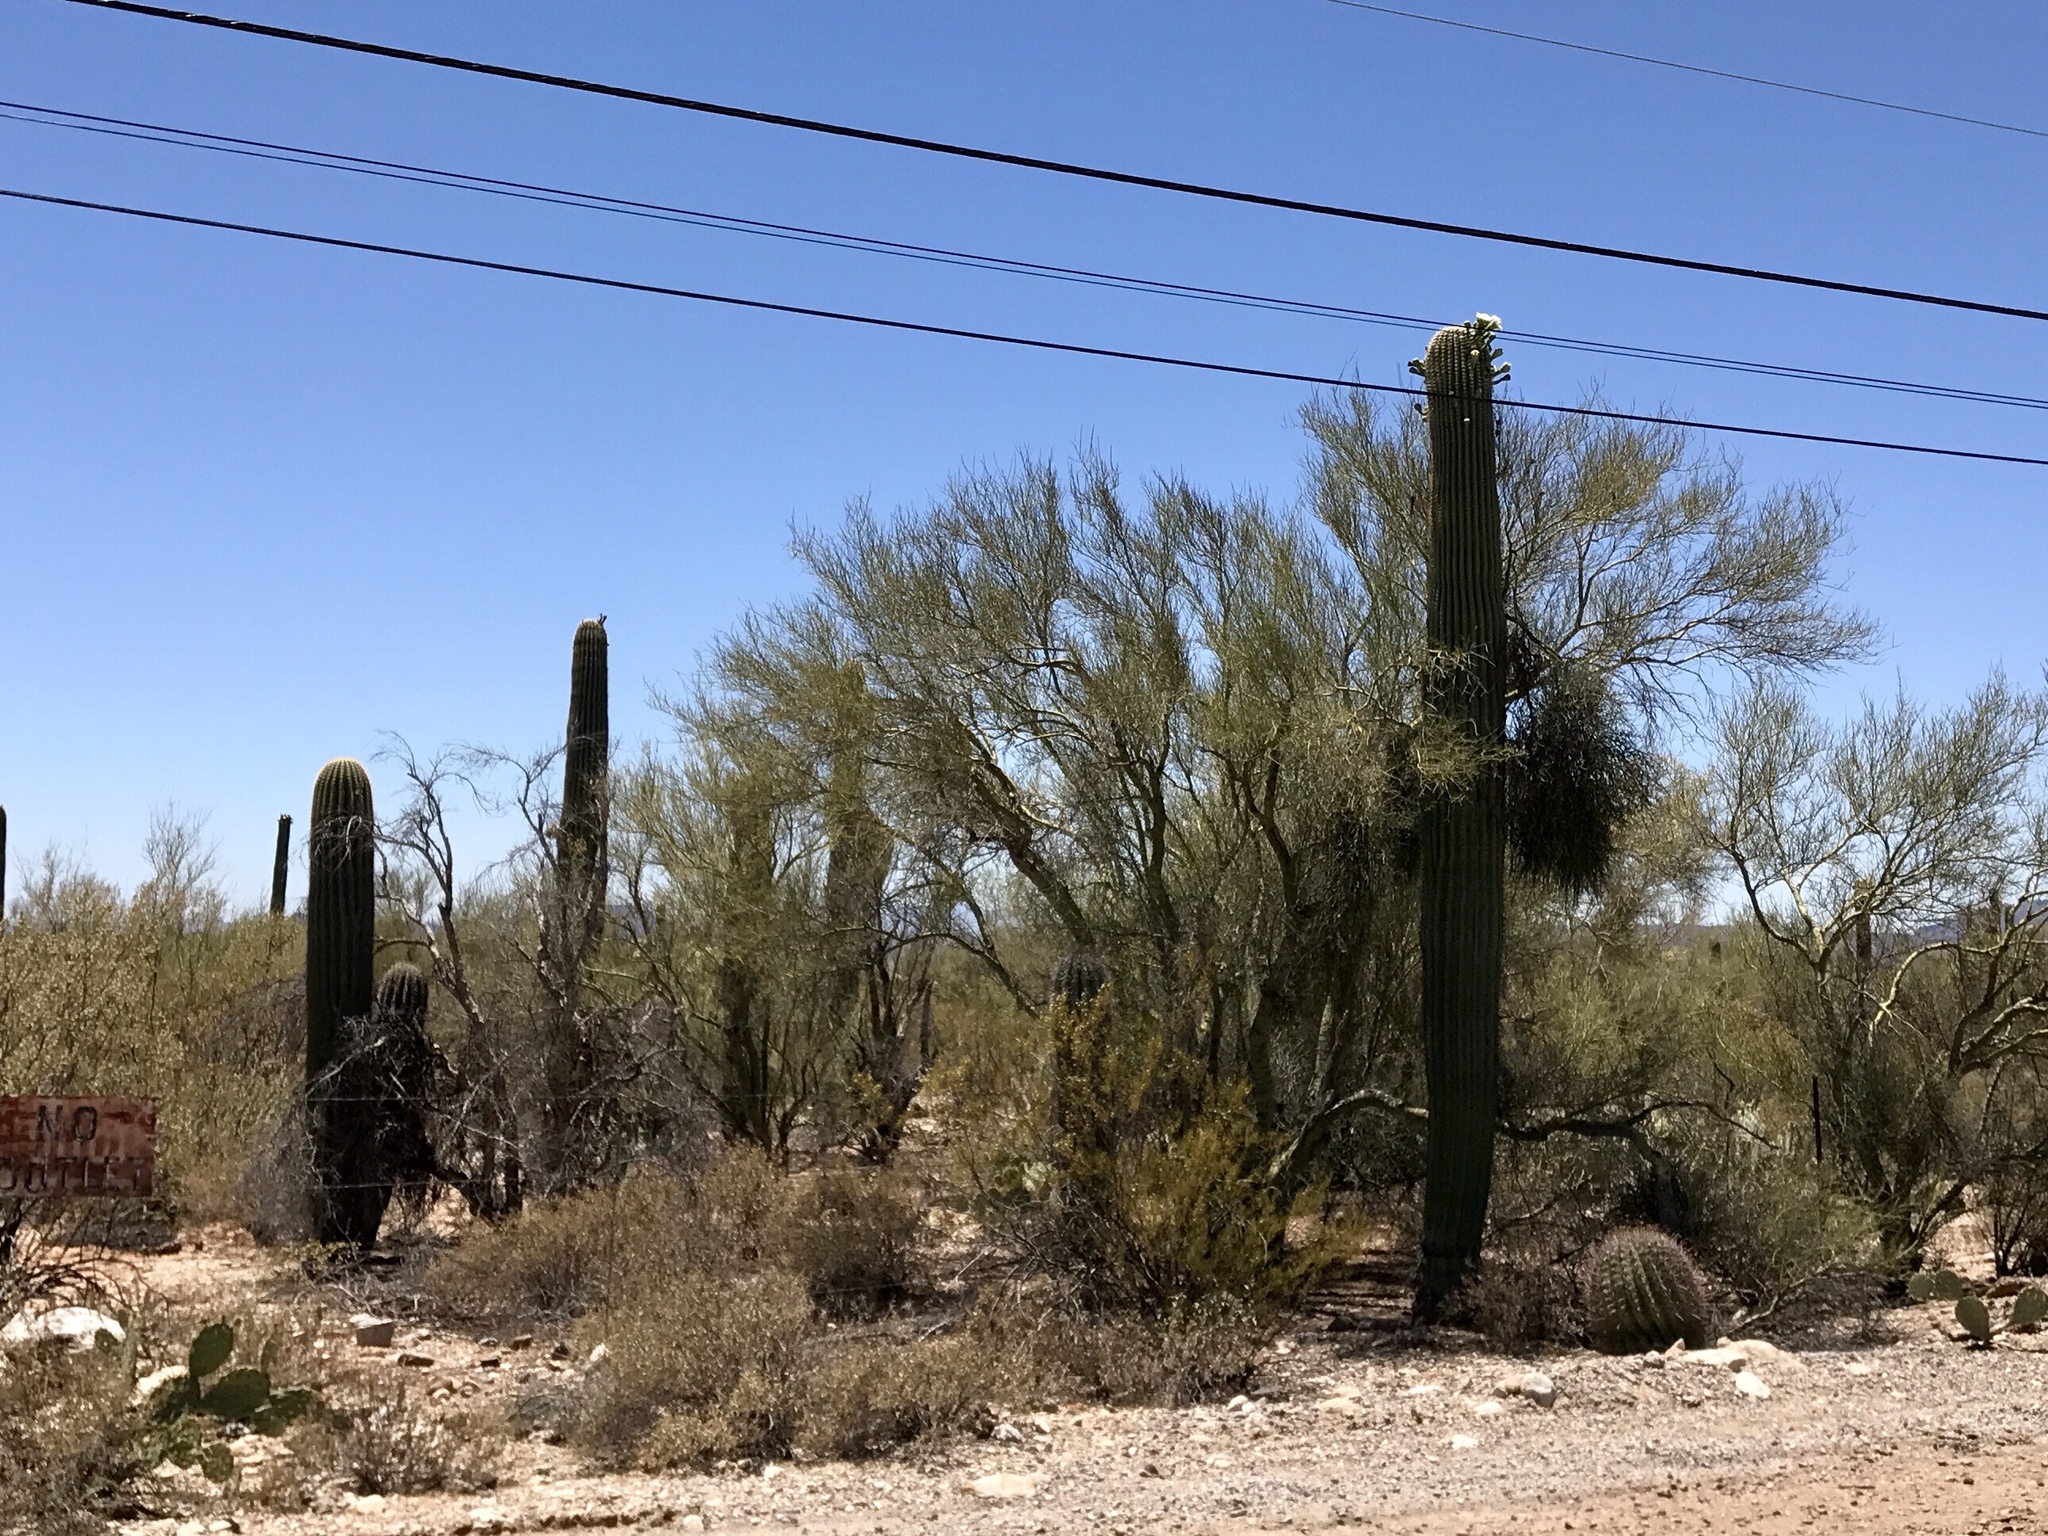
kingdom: Plantae
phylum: Tracheophyta
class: Magnoliopsida
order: Caryophyllales
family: Cactaceae
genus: Carnegiea
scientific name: Carnegiea gigantea
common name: Saguaro
